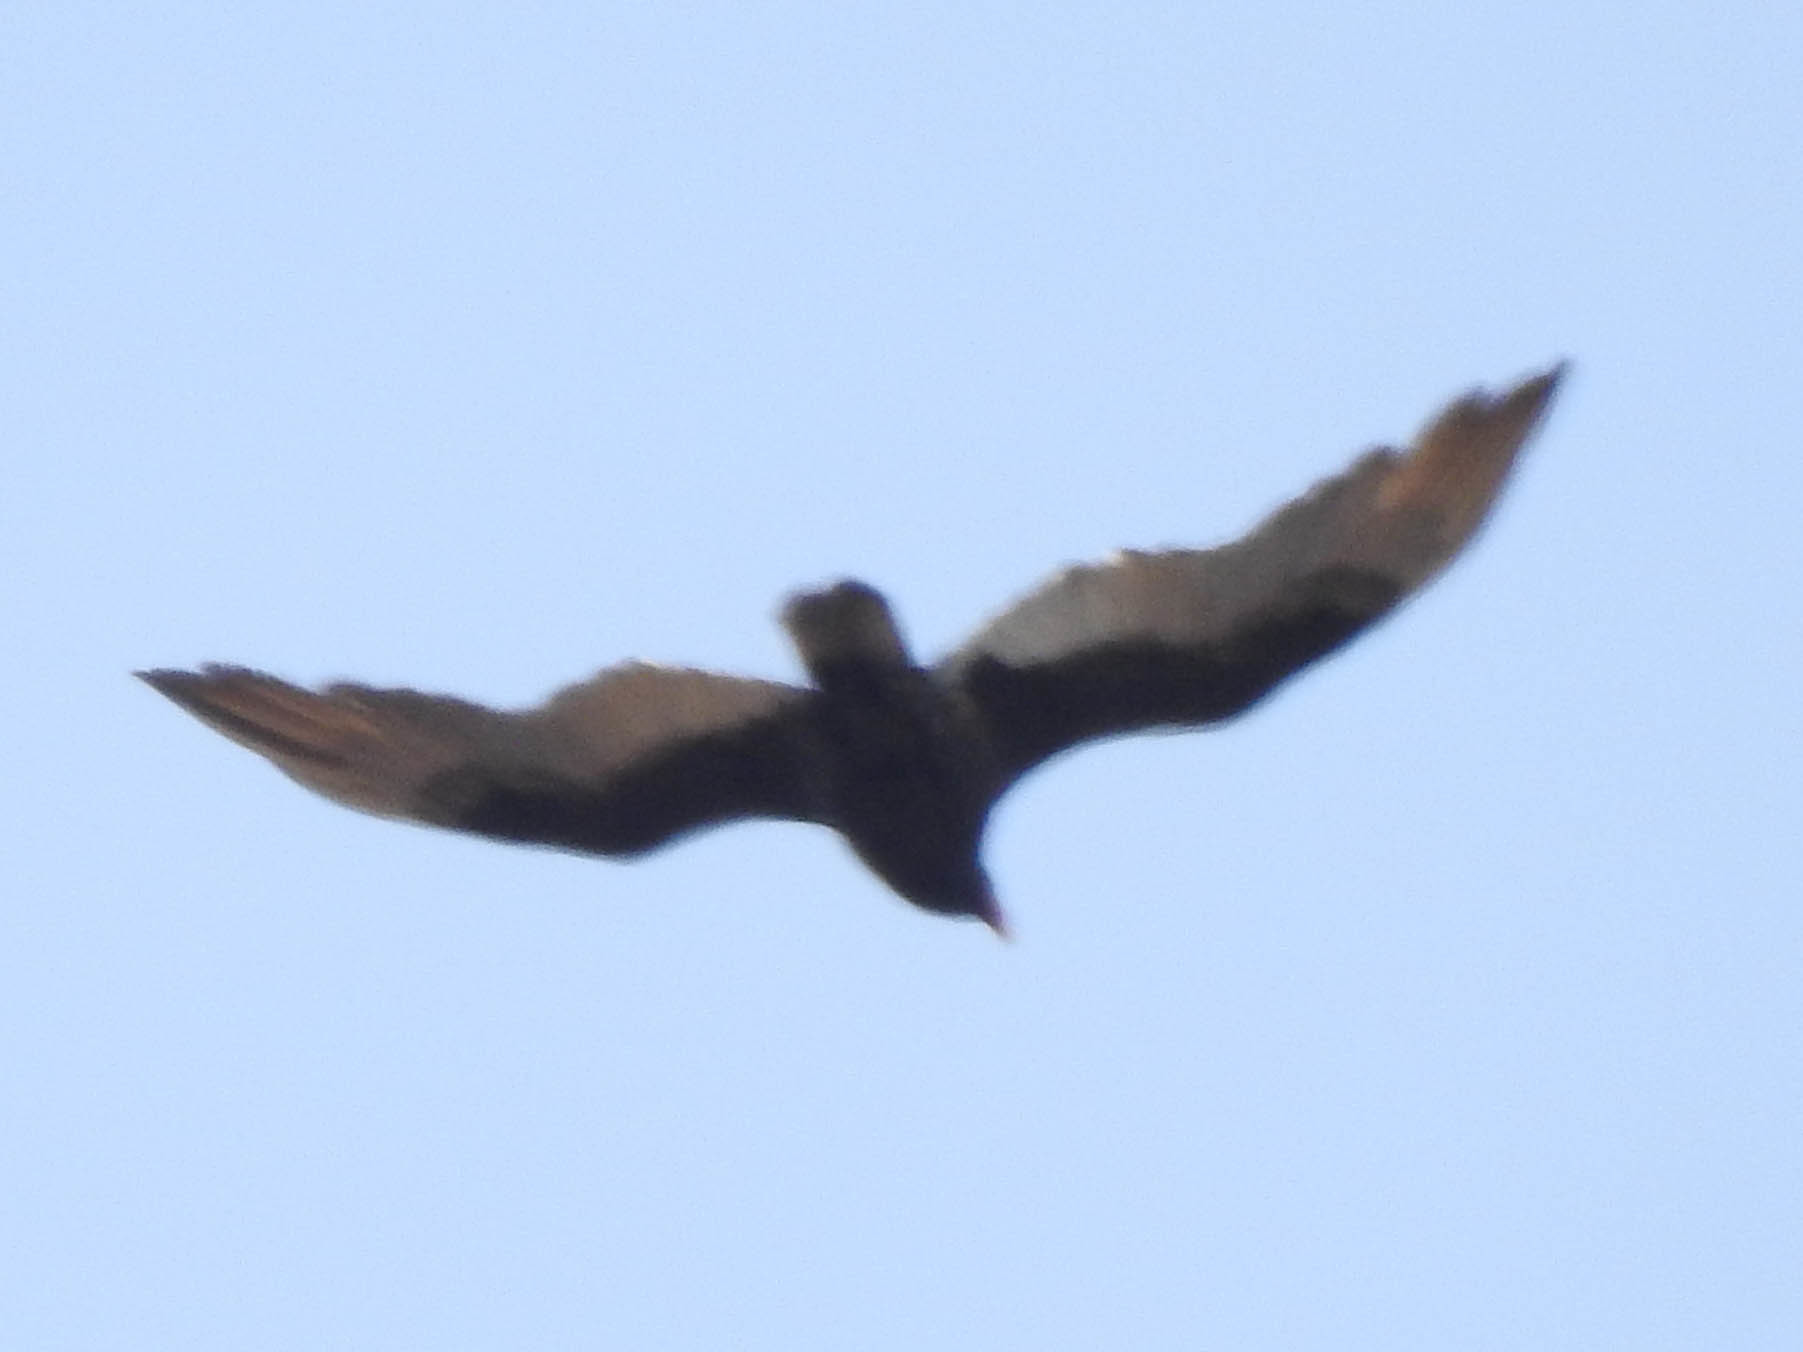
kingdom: Animalia
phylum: Chordata
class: Aves
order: Accipitriformes
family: Cathartidae
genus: Cathartes
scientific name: Cathartes aura
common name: Turkey vulture
